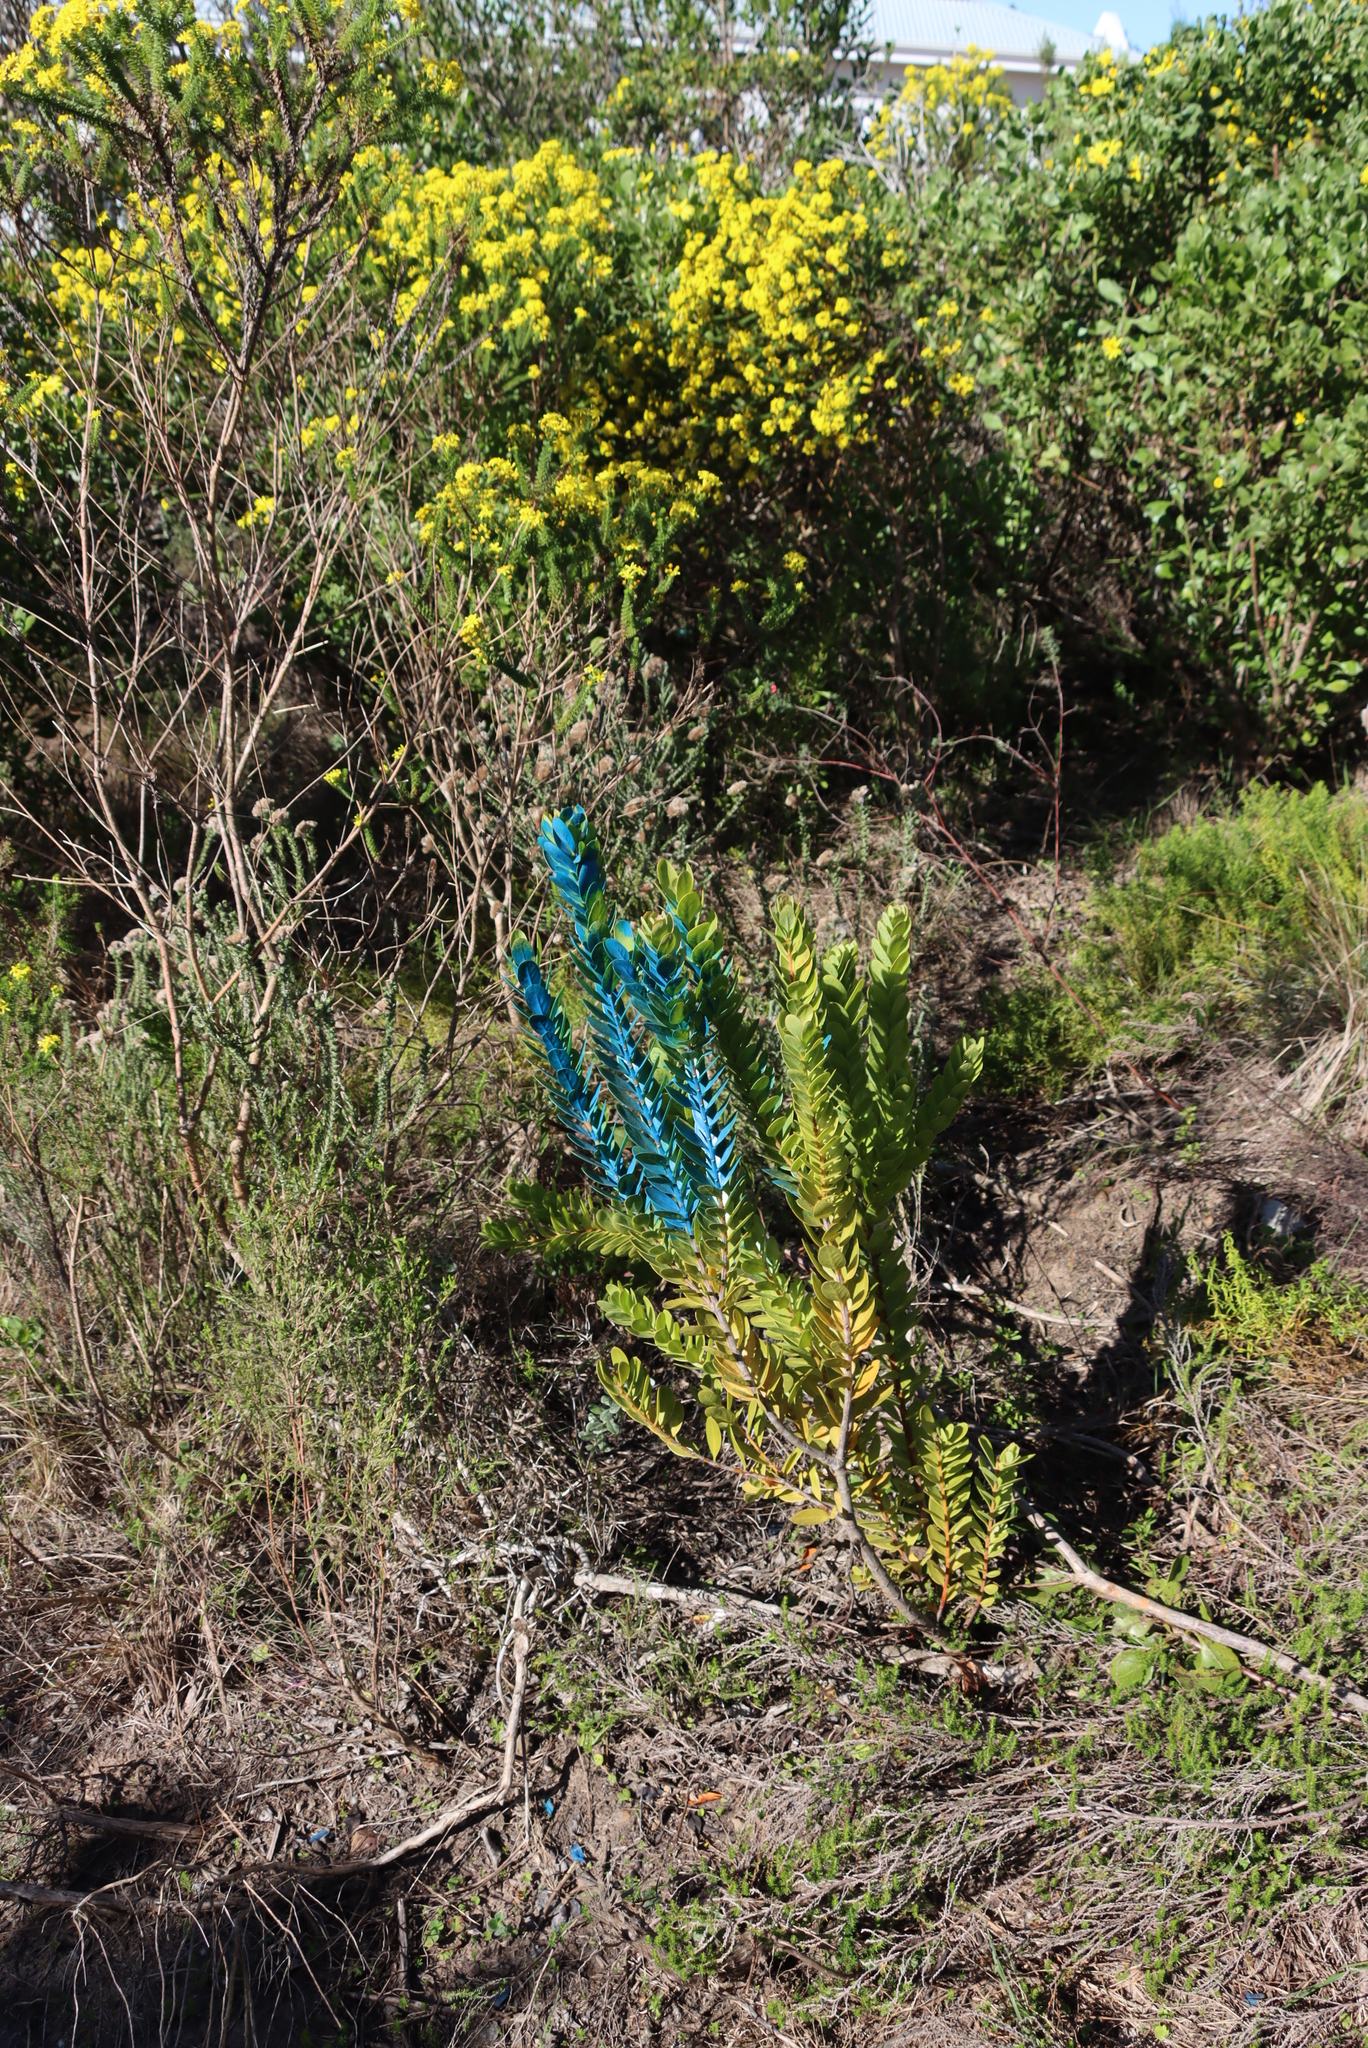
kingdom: Plantae
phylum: Tracheophyta
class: Magnoliopsida
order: Santalales
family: Santalaceae
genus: Osyris
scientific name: Osyris compressa
